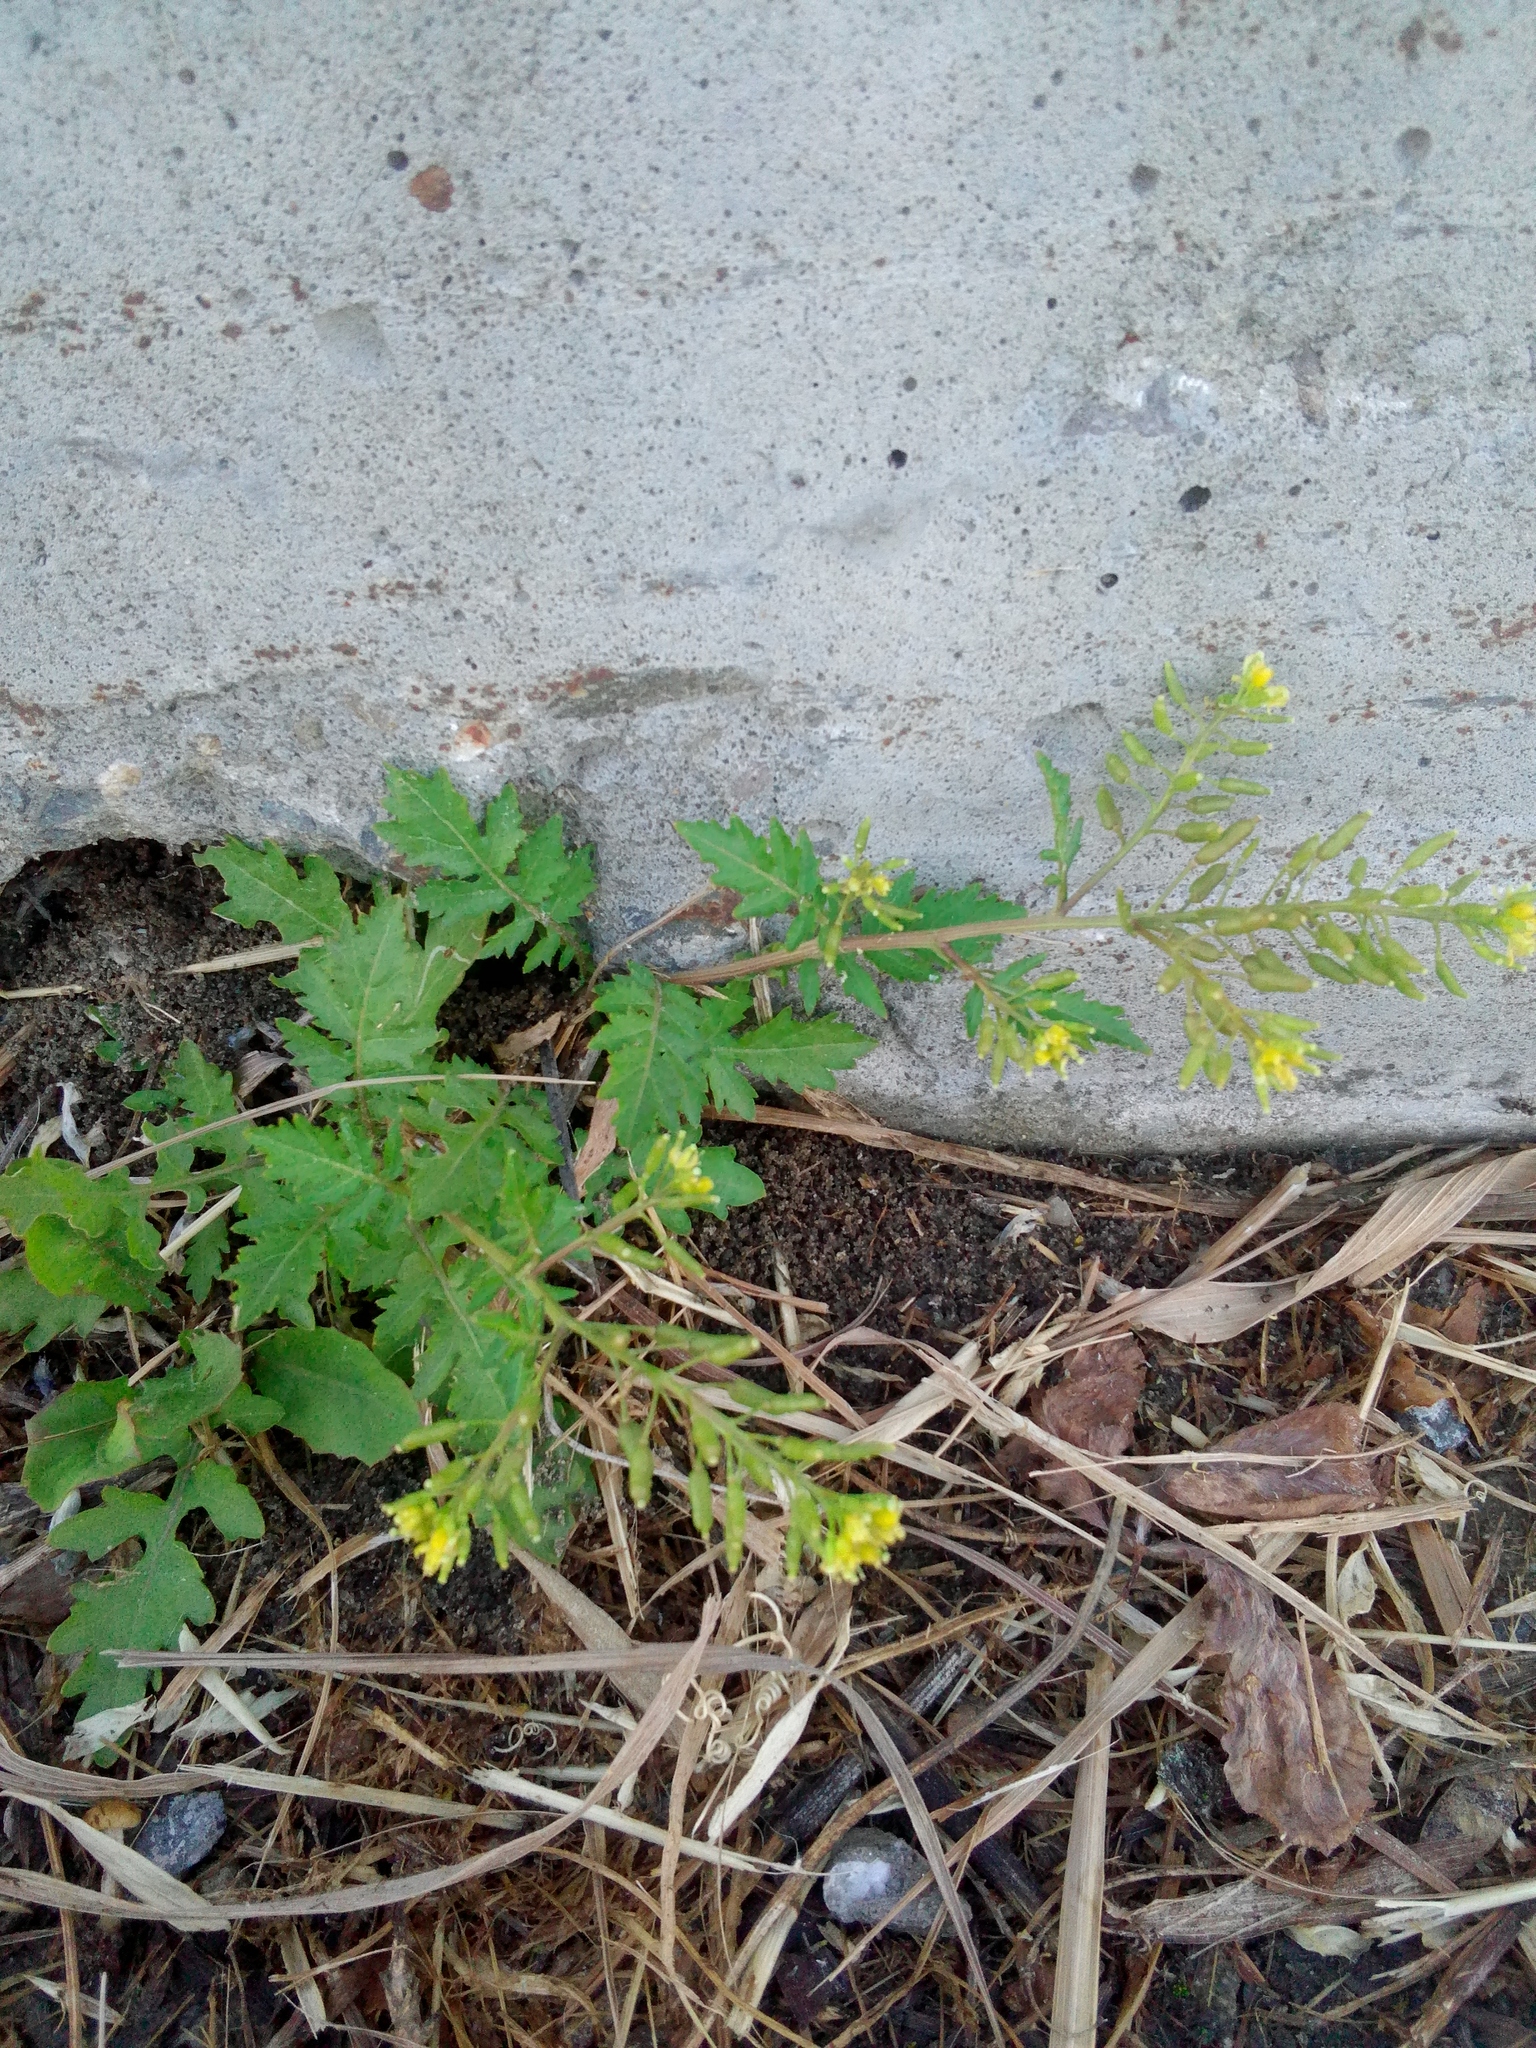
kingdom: Plantae
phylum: Tracheophyta
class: Magnoliopsida
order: Brassicales
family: Brassicaceae
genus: Rorippa
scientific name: Rorippa palustris
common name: Marsh yellow-cress
